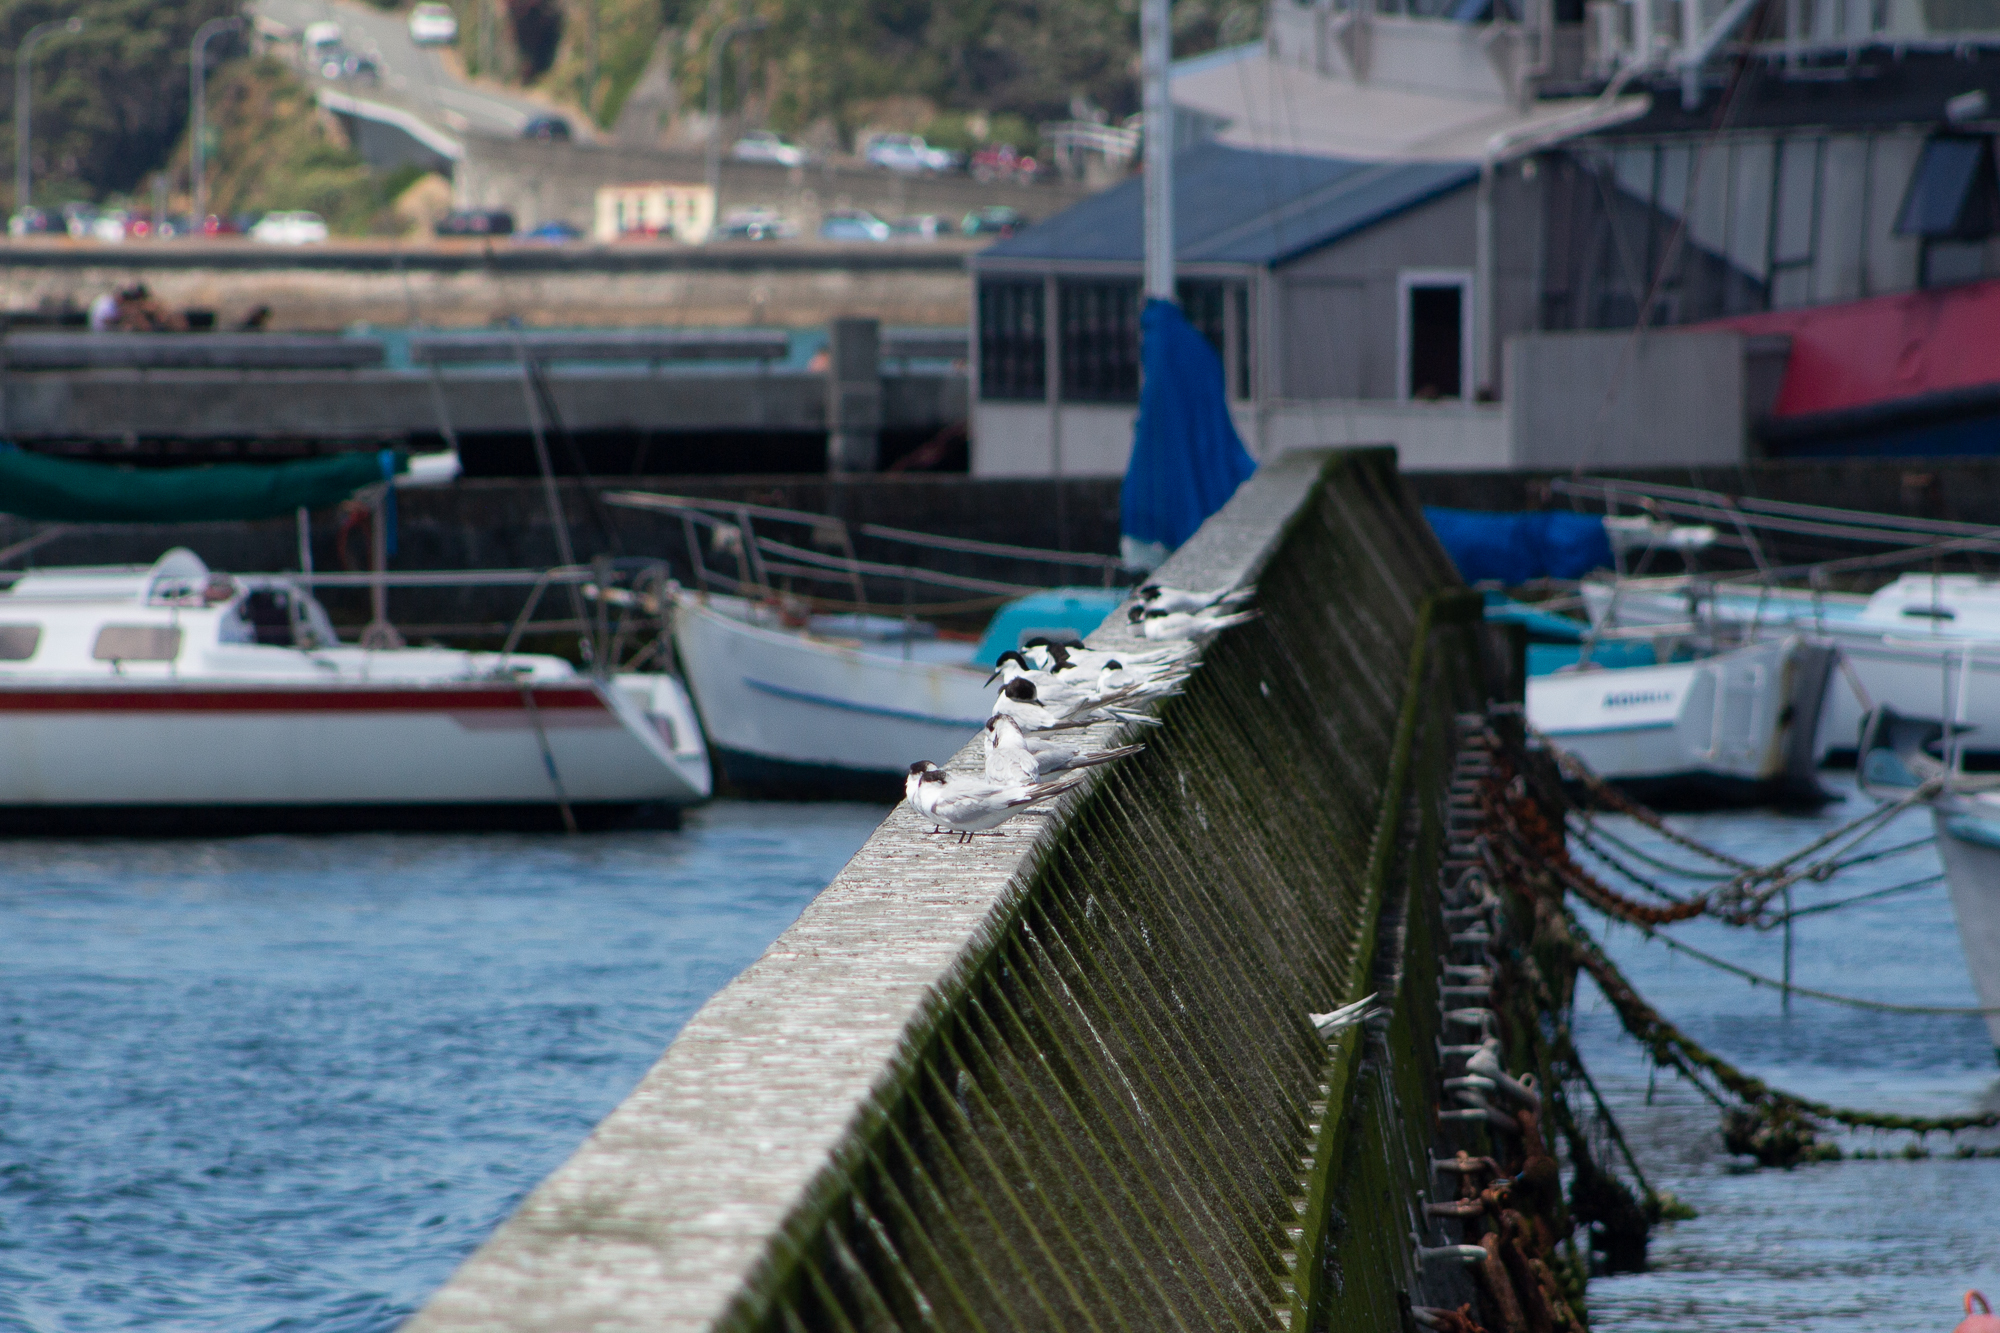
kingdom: Animalia
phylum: Chordata
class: Aves
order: Charadriiformes
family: Laridae
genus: Sterna
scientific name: Sterna striata
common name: White-fronted tern
